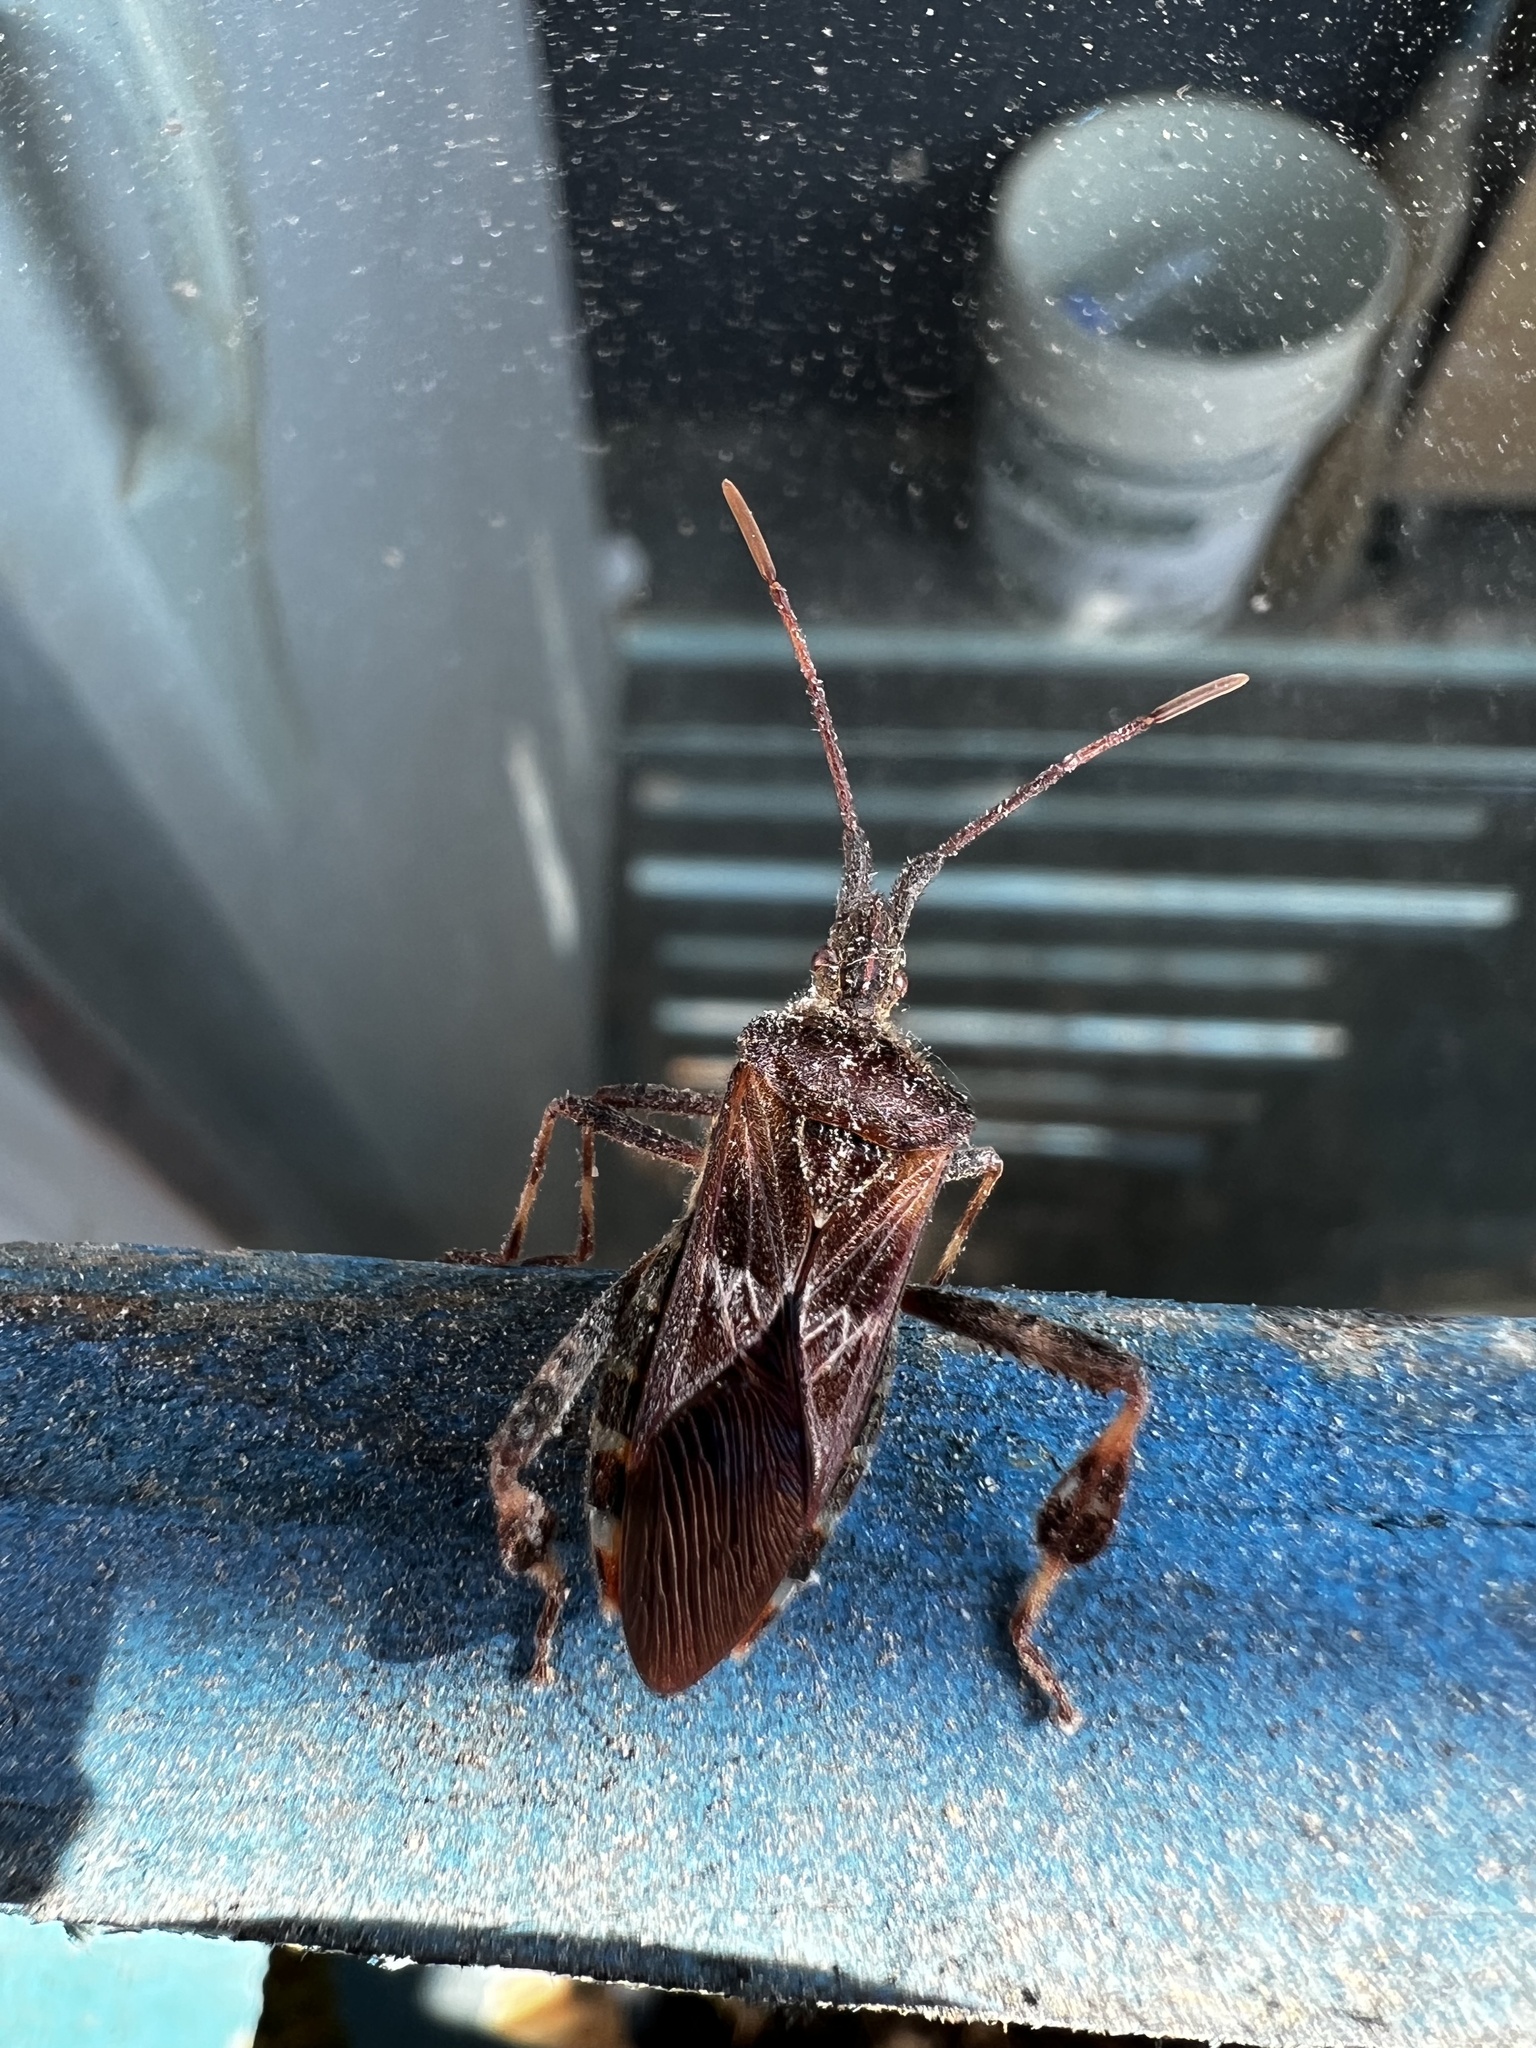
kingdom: Animalia
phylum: Arthropoda
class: Insecta
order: Hemiptera
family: Coreidae
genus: Leptoglossus
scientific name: Leptoglossus occidentalis
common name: Western conifer-seed bug
